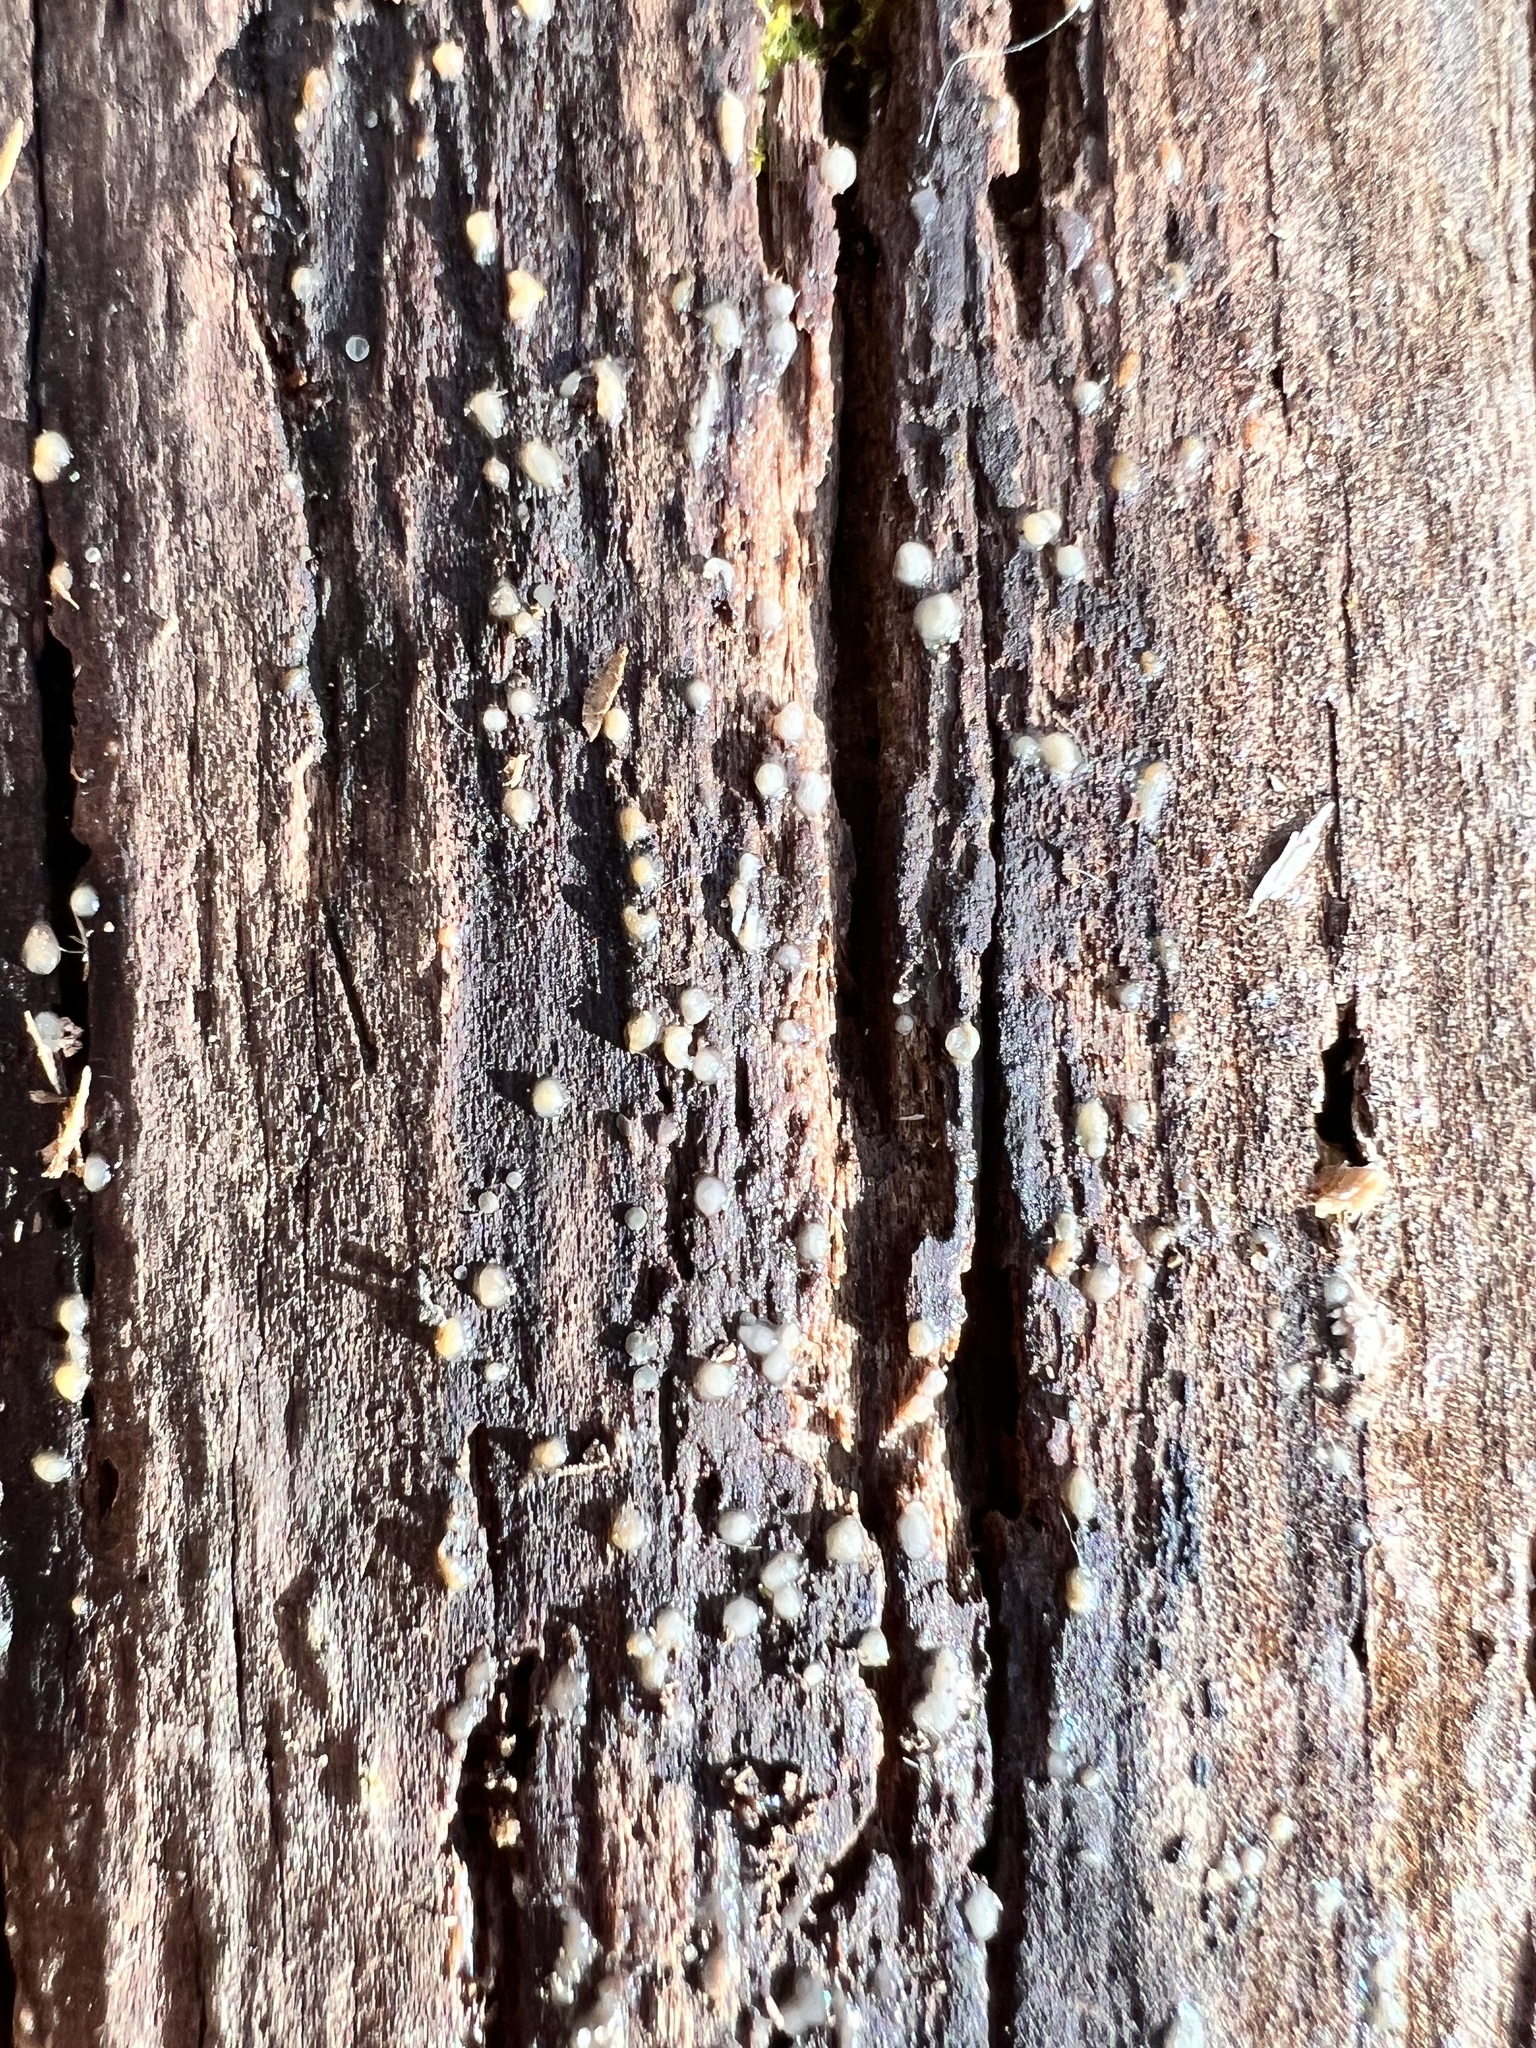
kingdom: Fungi
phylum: Basidiomycota
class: Atractiellomycetes
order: Atractiellales
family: Phleogenaceae
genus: Helicogloea
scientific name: Helicogloea compressa
